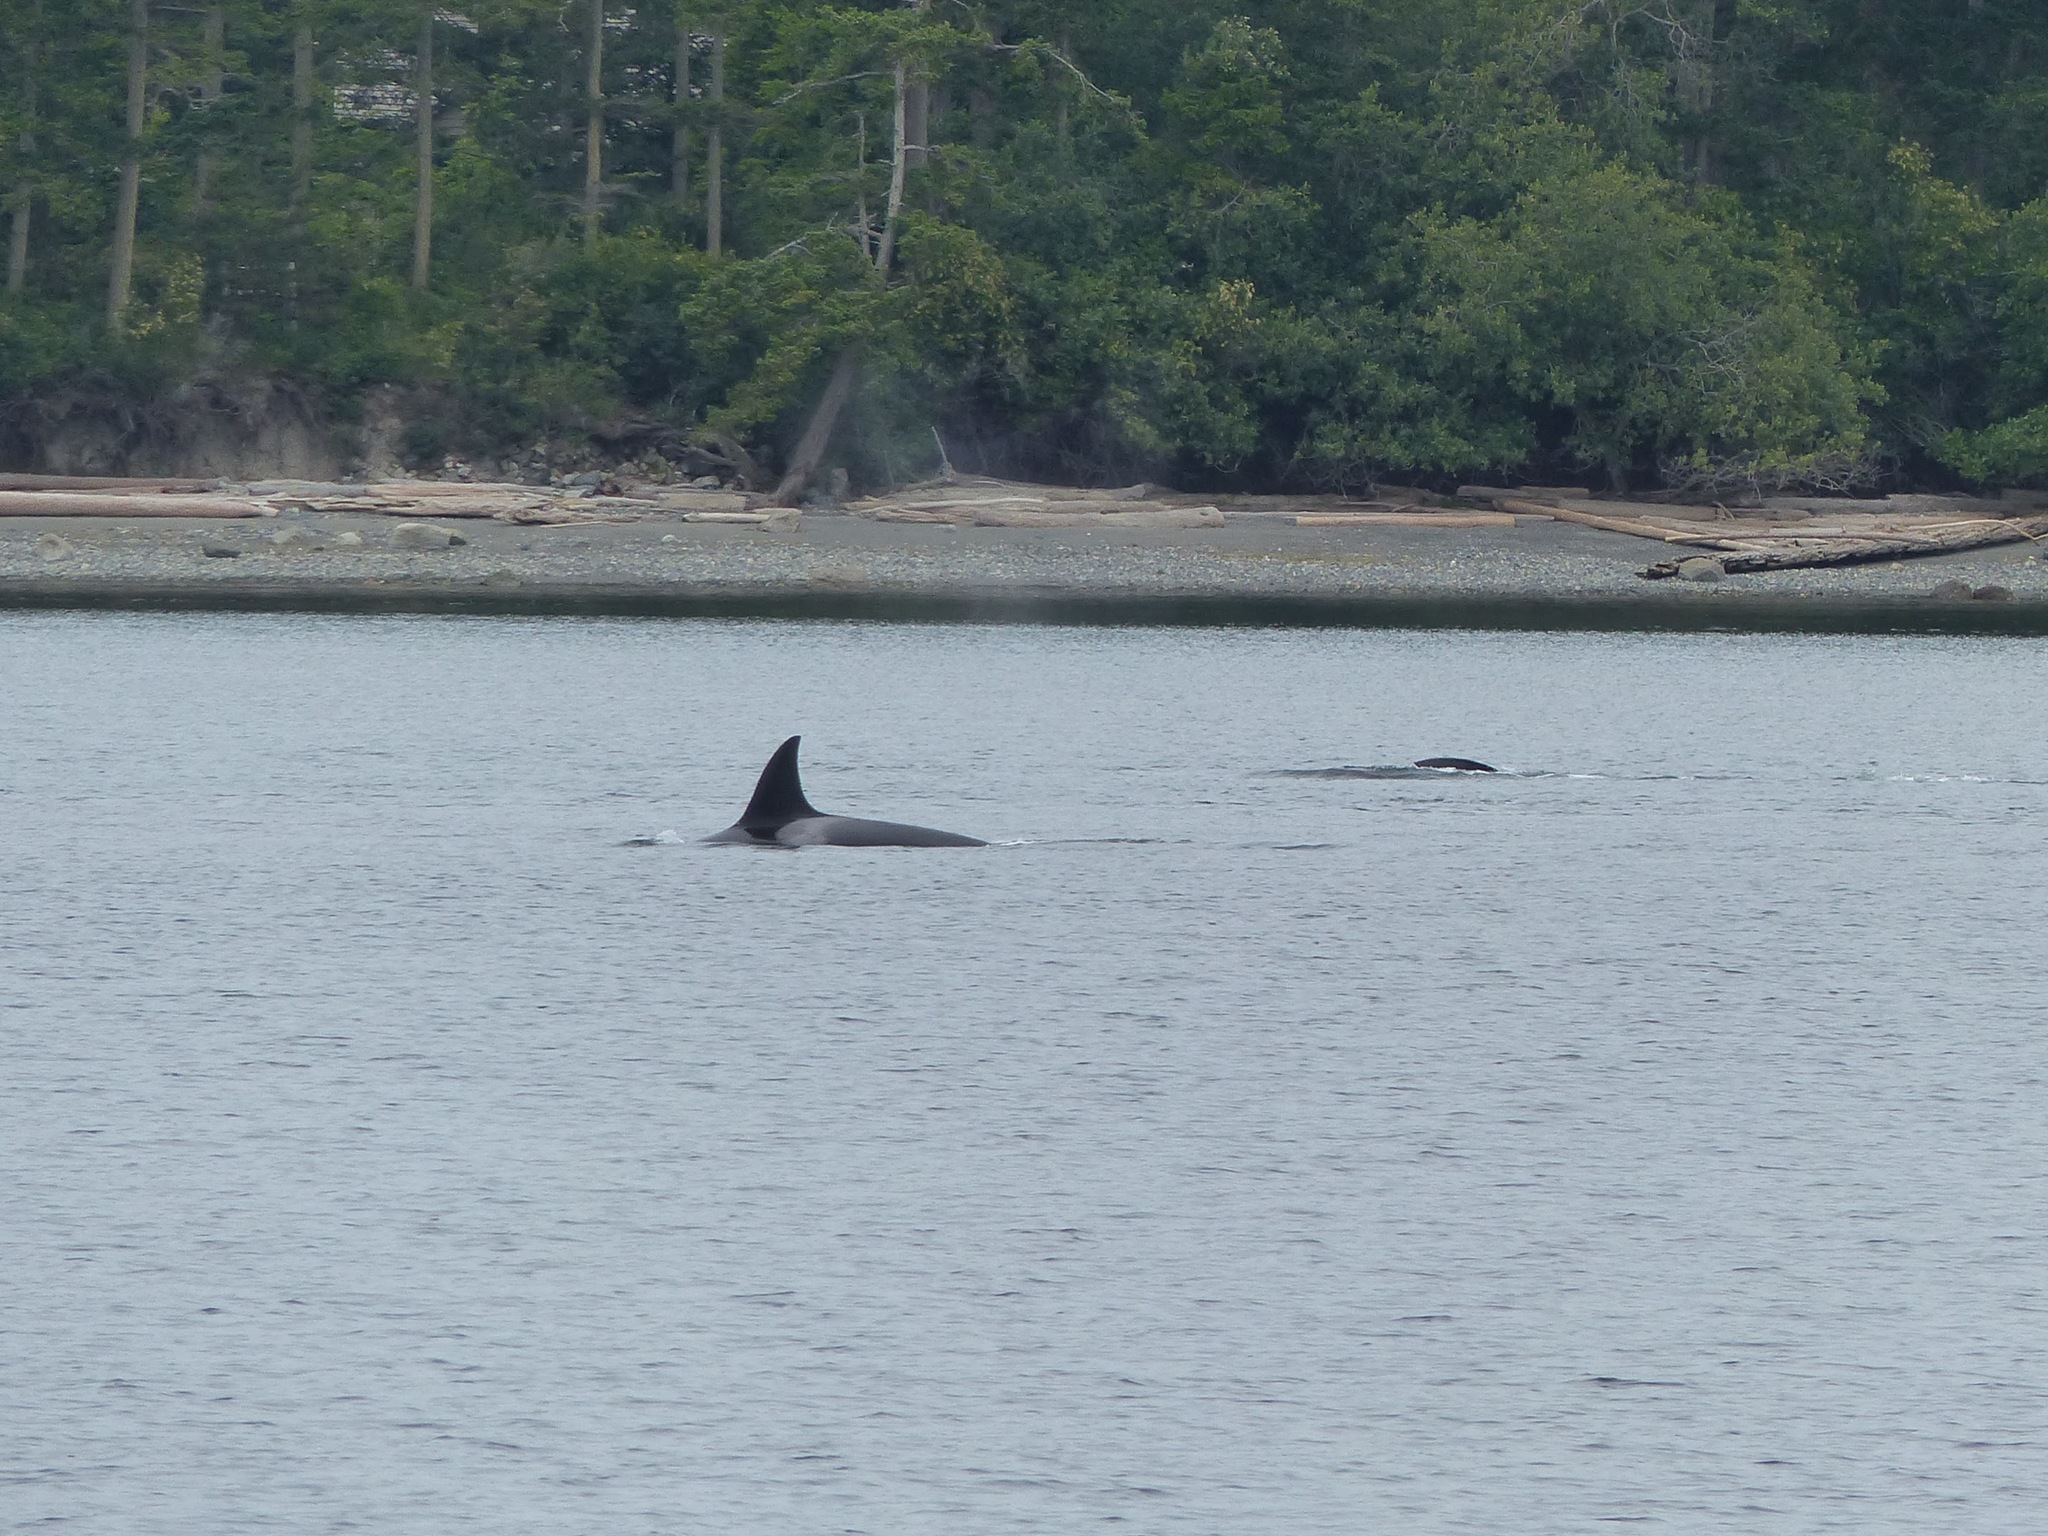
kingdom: Animalia
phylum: Chordata
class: Mammalia
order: Cetacea
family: Delphinidae
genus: Orcinus
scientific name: Orcinus orca
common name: Killer whale
